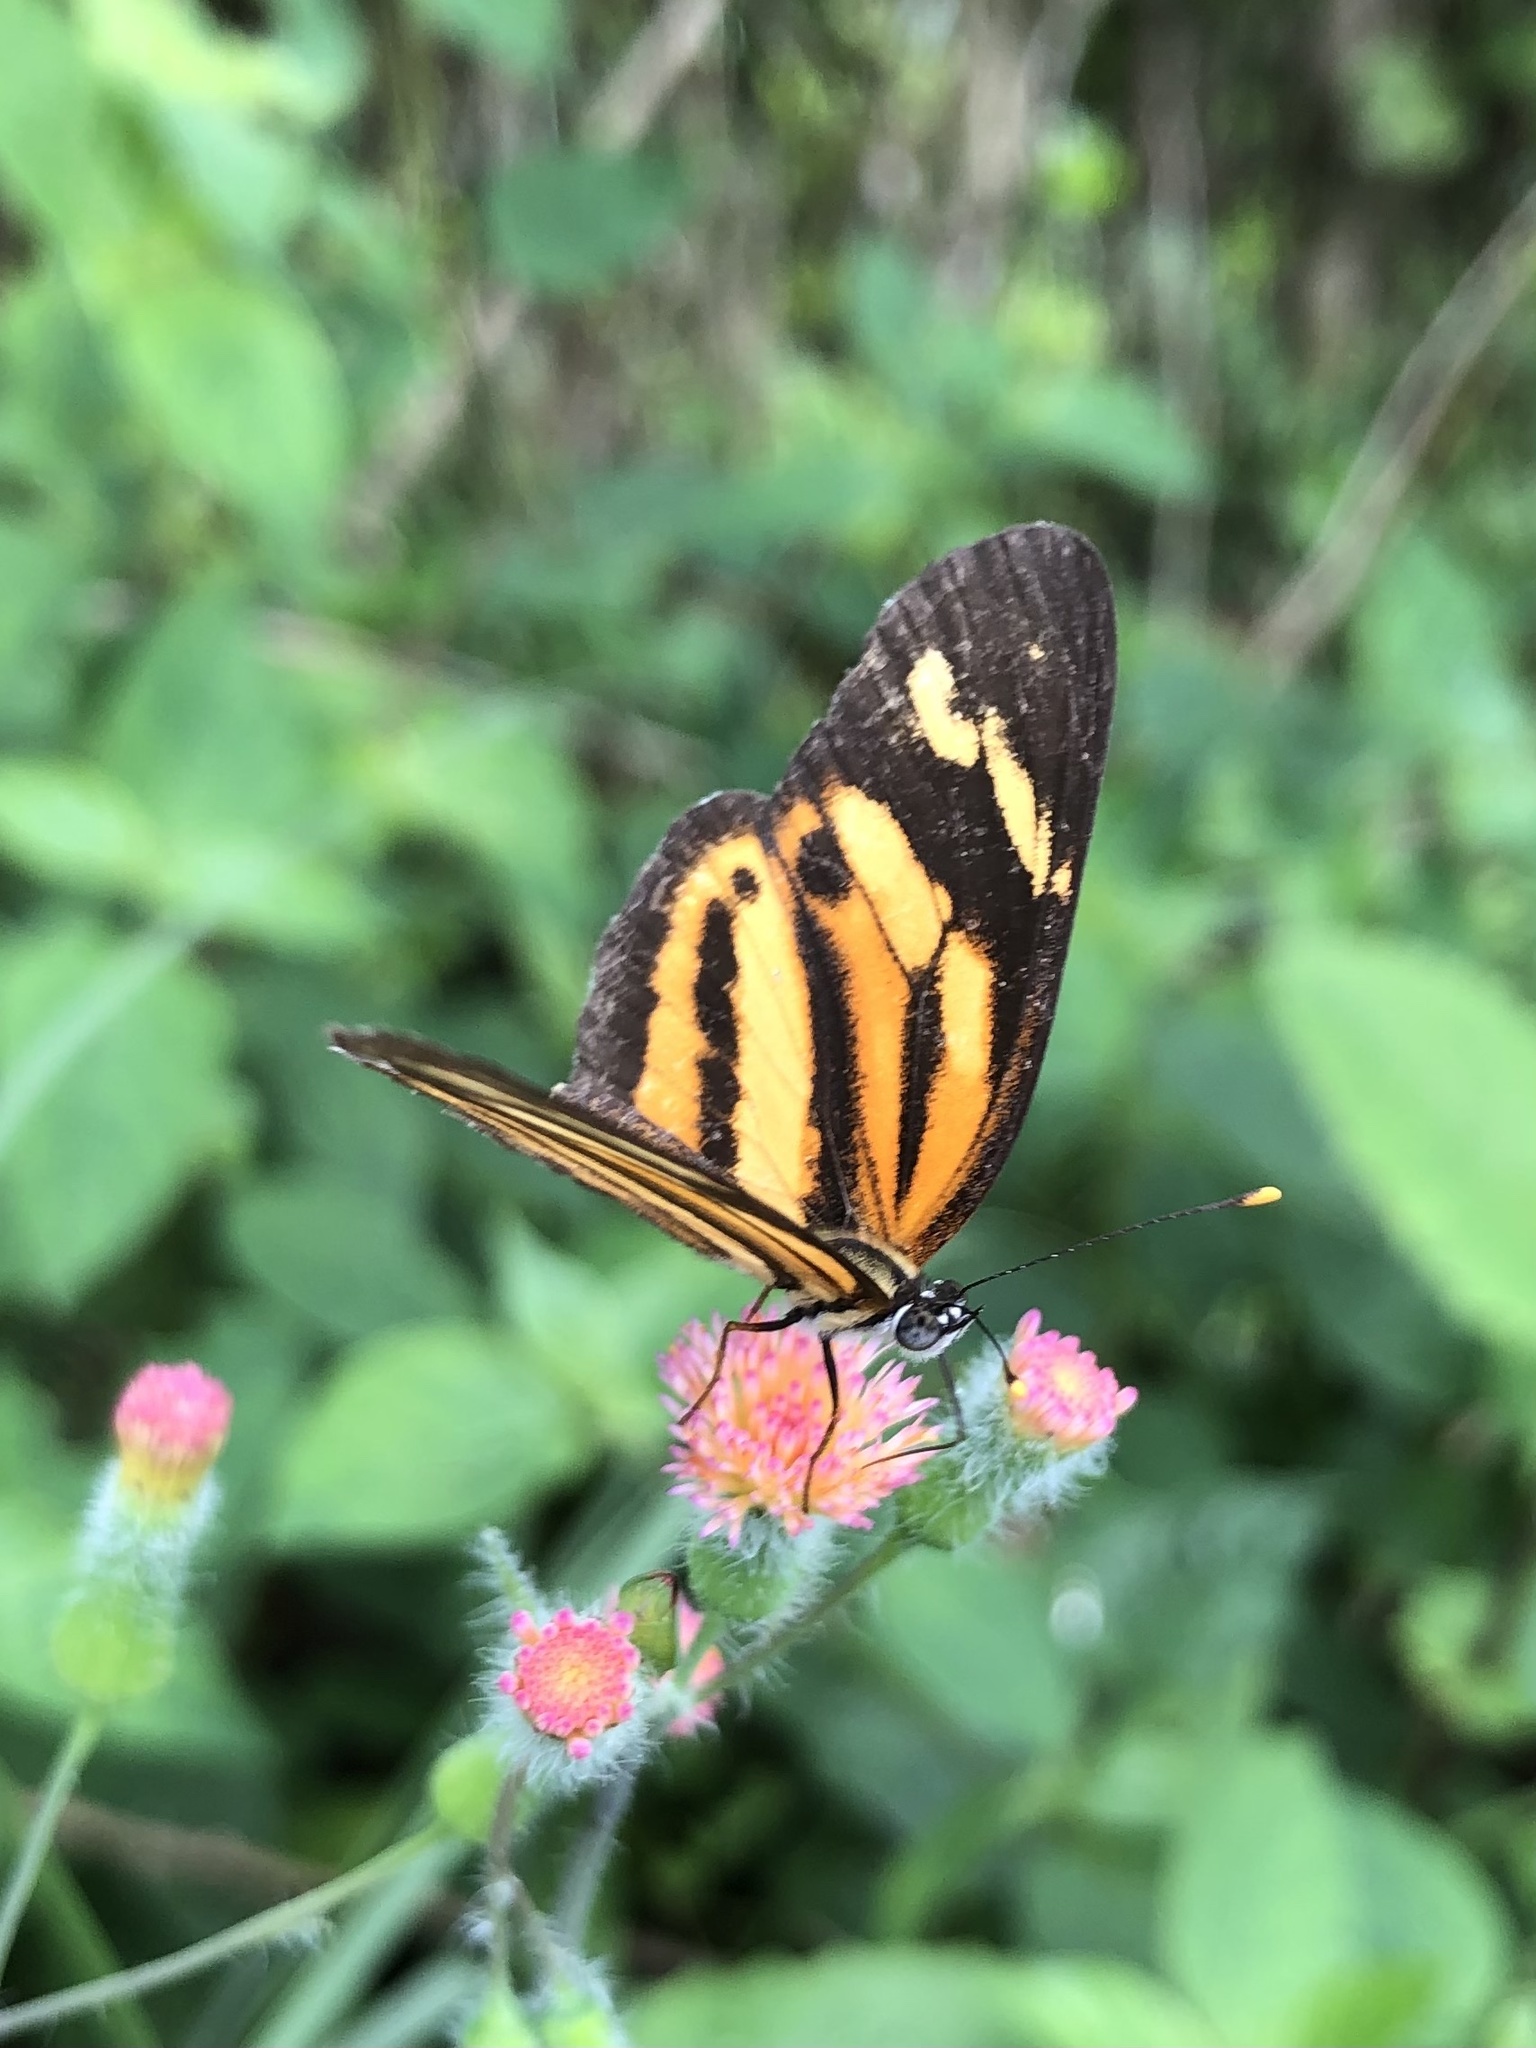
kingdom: Animalia
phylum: Arthropoda
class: Insecta
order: Lepidoptera
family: Nymphalidae
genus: Eresia
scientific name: Eresia eunice
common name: Tiger crescent
